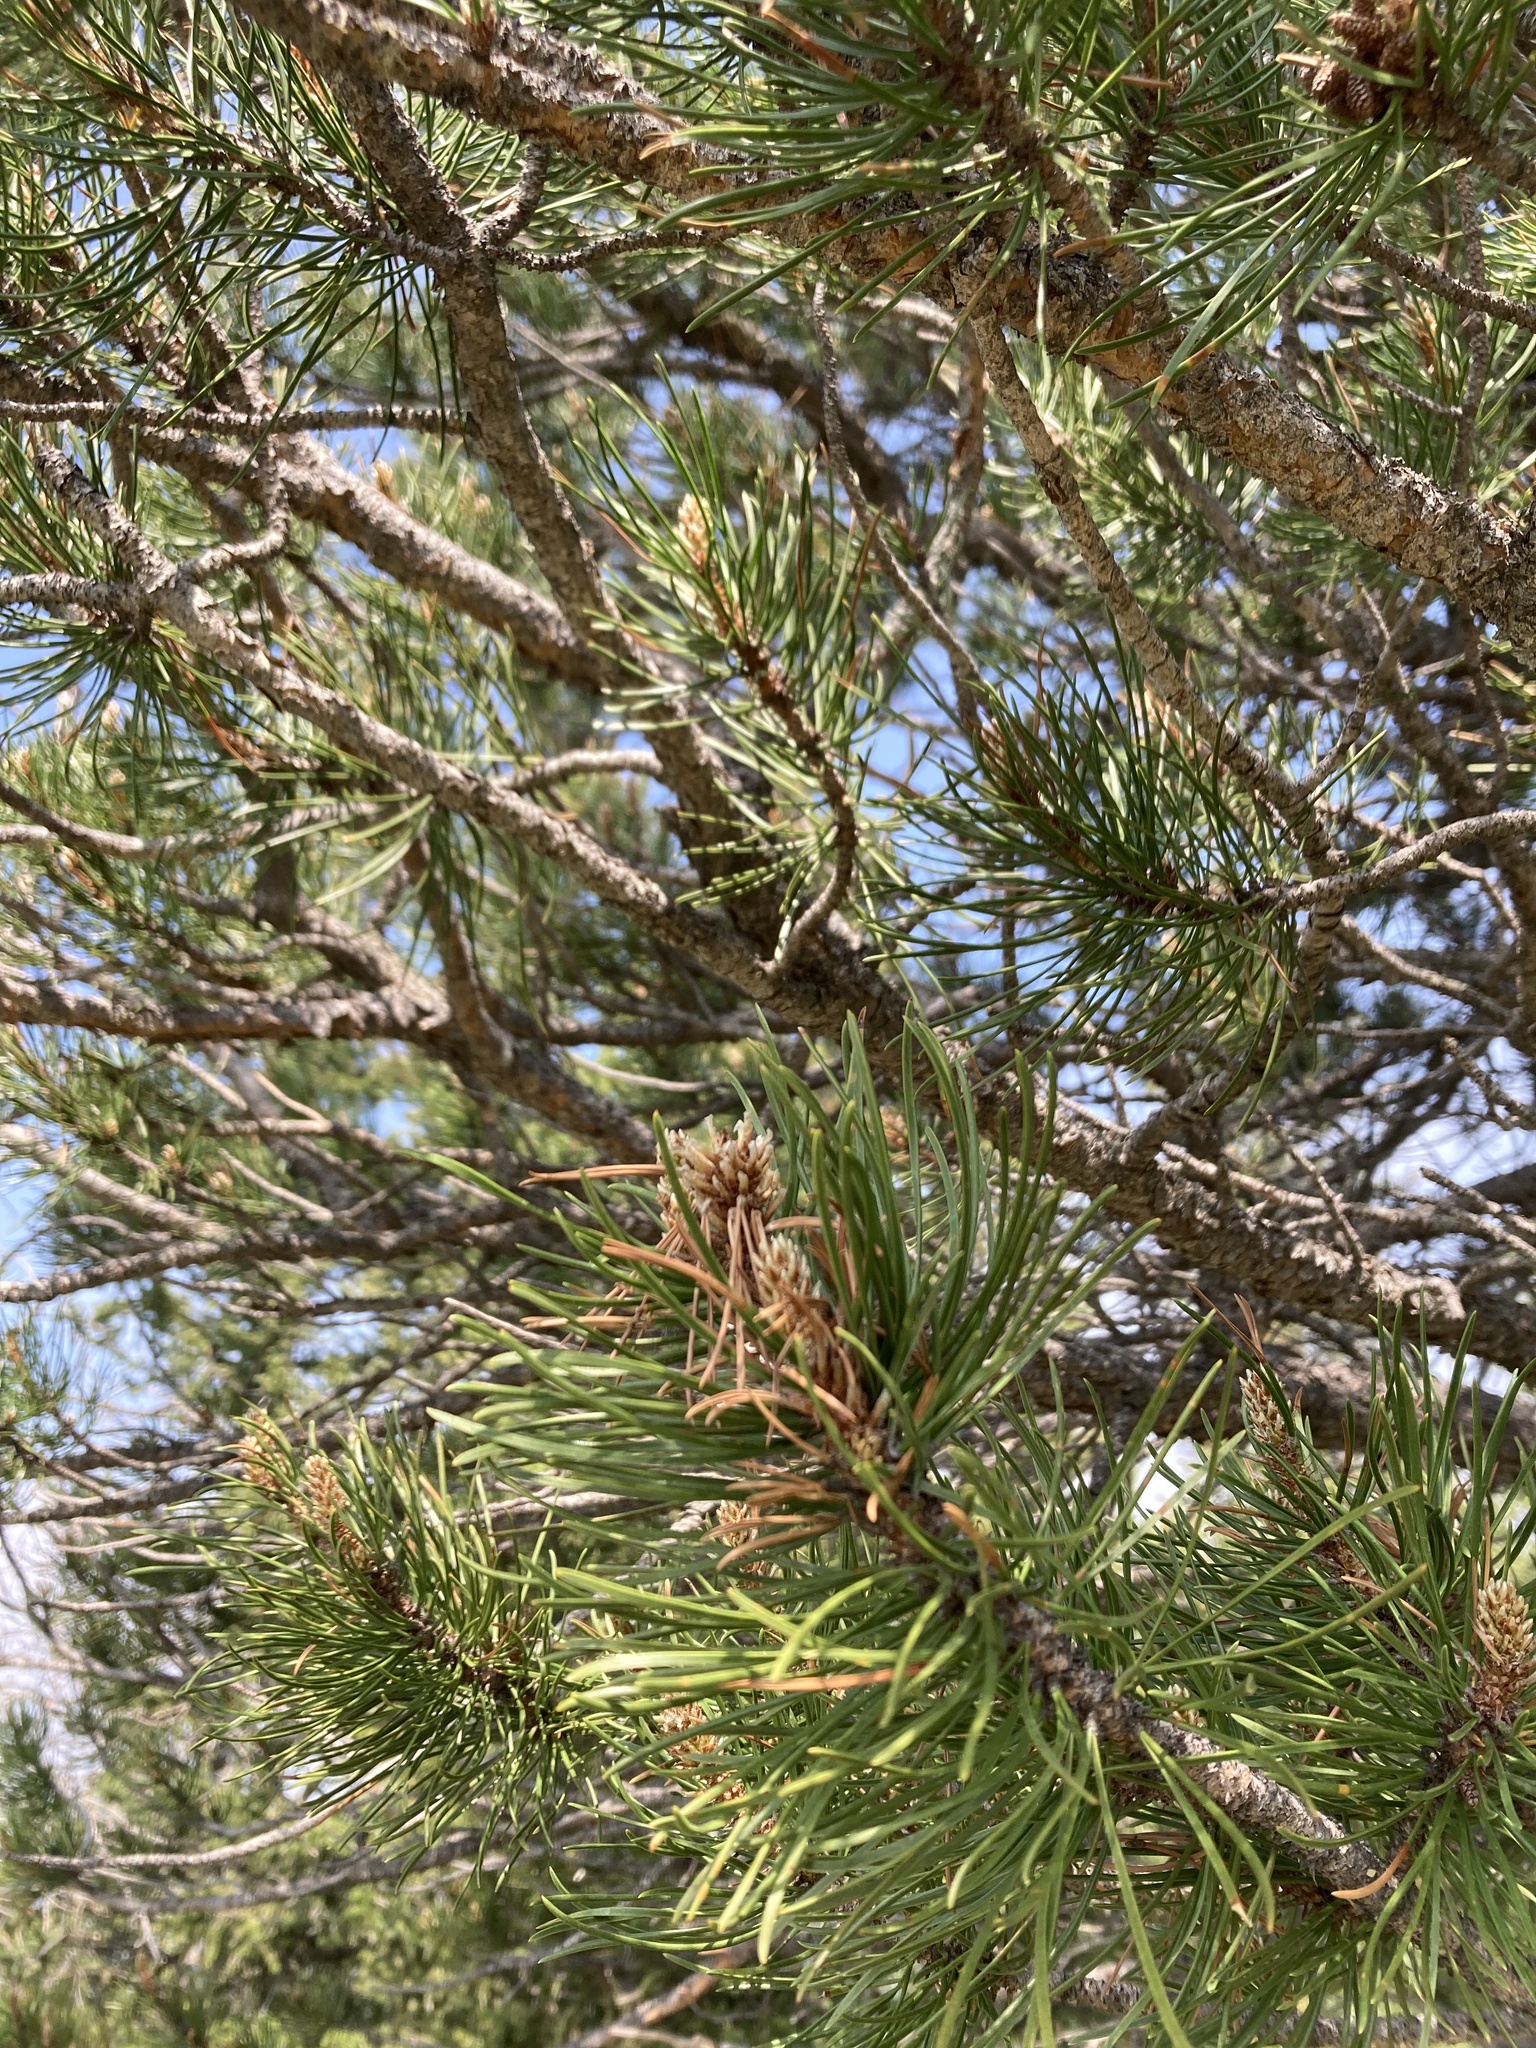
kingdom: Plantae
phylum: Tracheophyta
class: Pinopsida
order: Pinales
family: Pinaceae
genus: Pinus
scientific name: Pinus contorta
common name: Lodgepole pine
